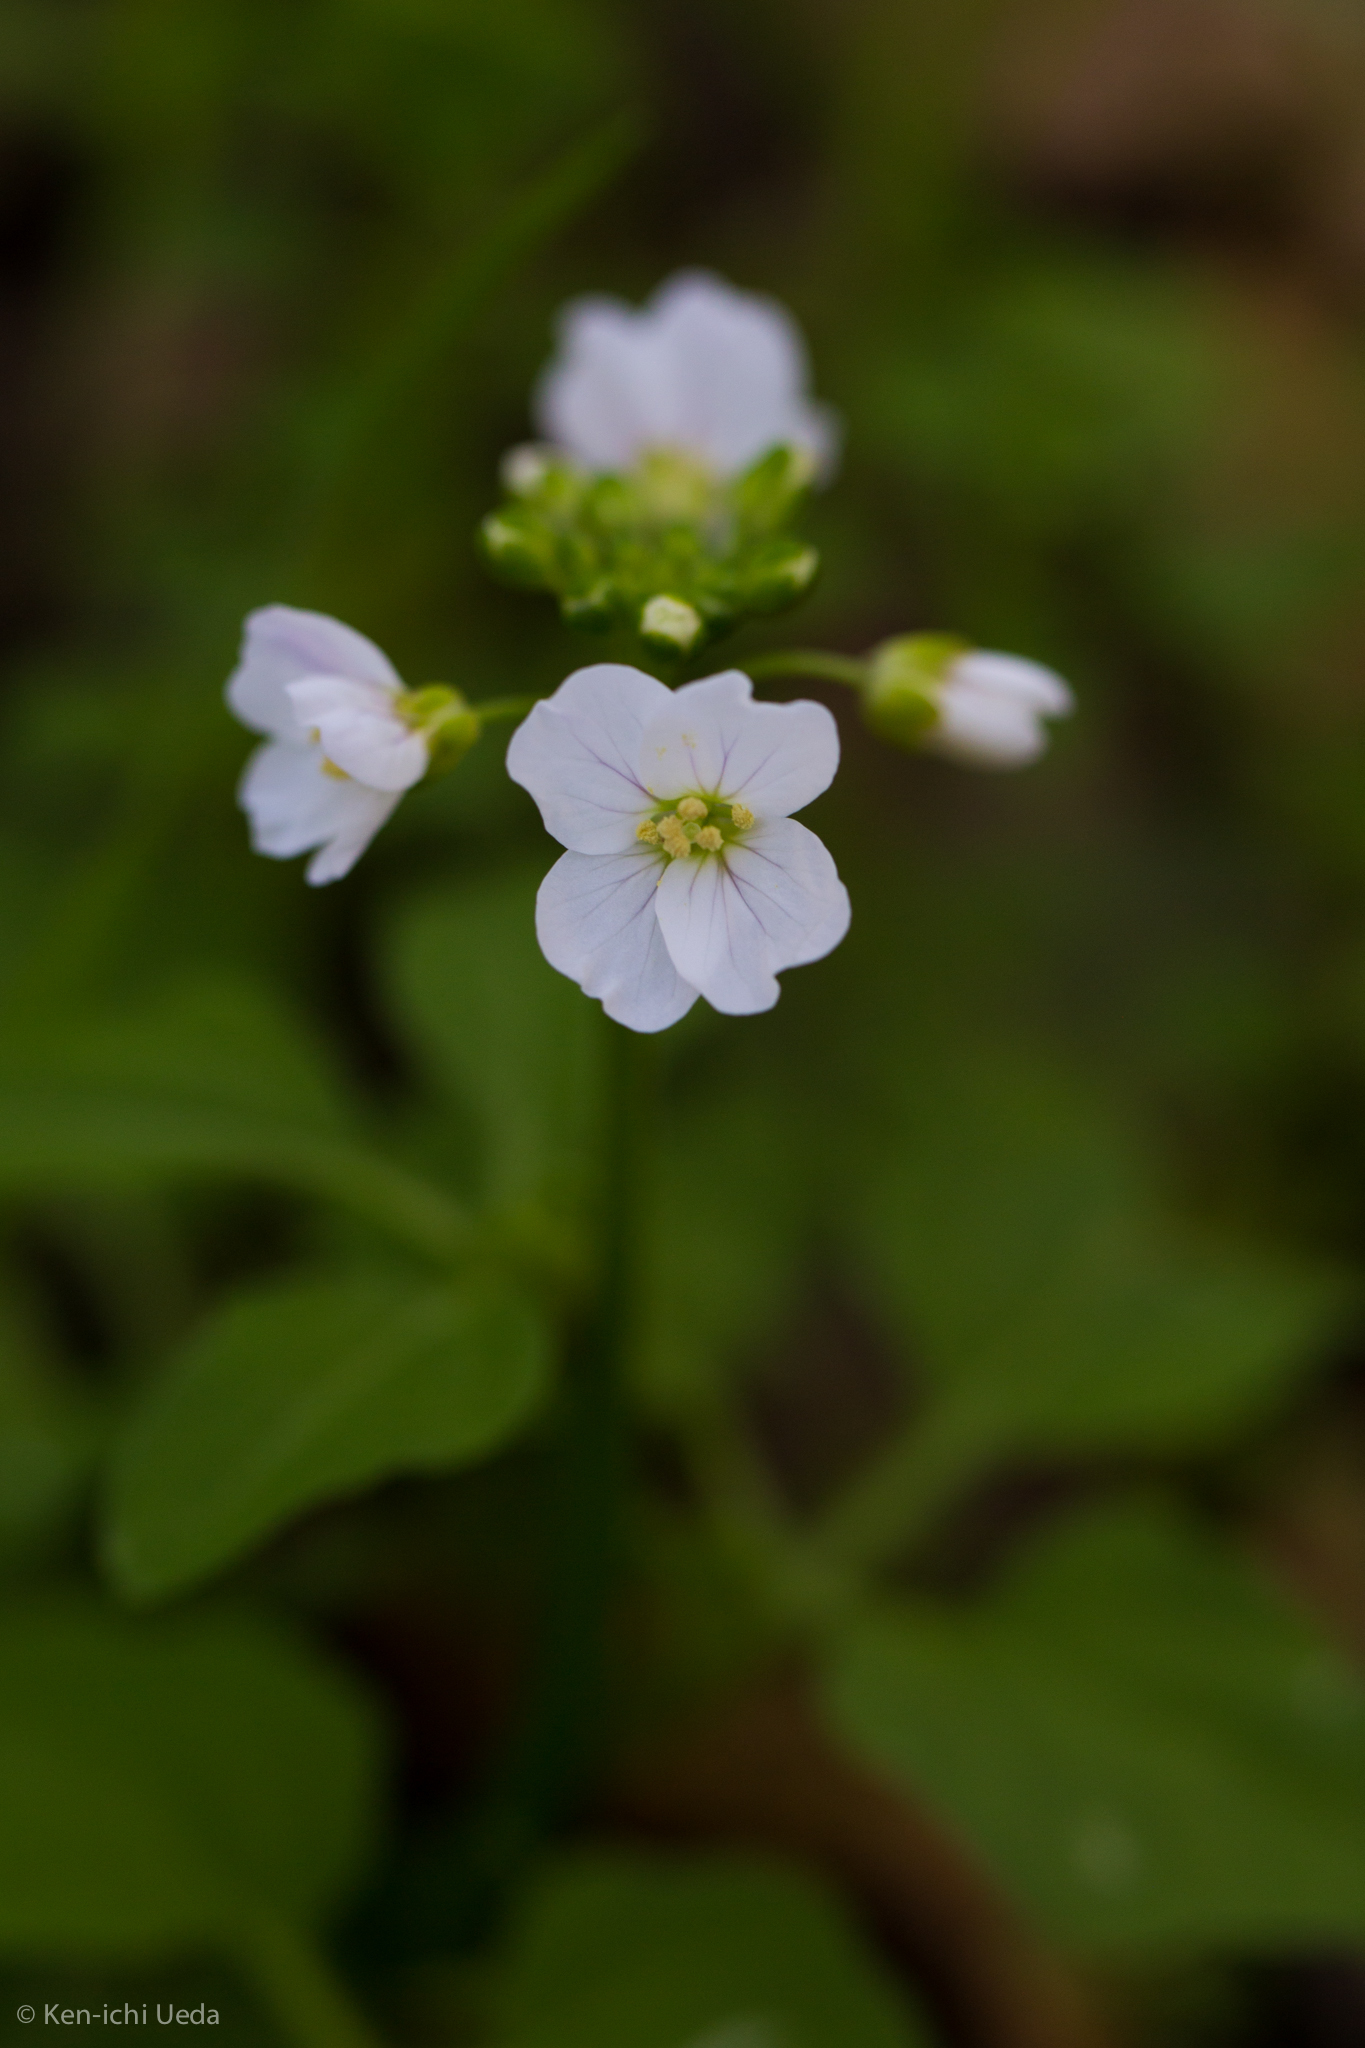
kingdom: Plantae
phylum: Tracheophyta
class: Magnoliopsida
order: Brassicales
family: Brassicaceae
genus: Cardamine
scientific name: Cardamine californica
